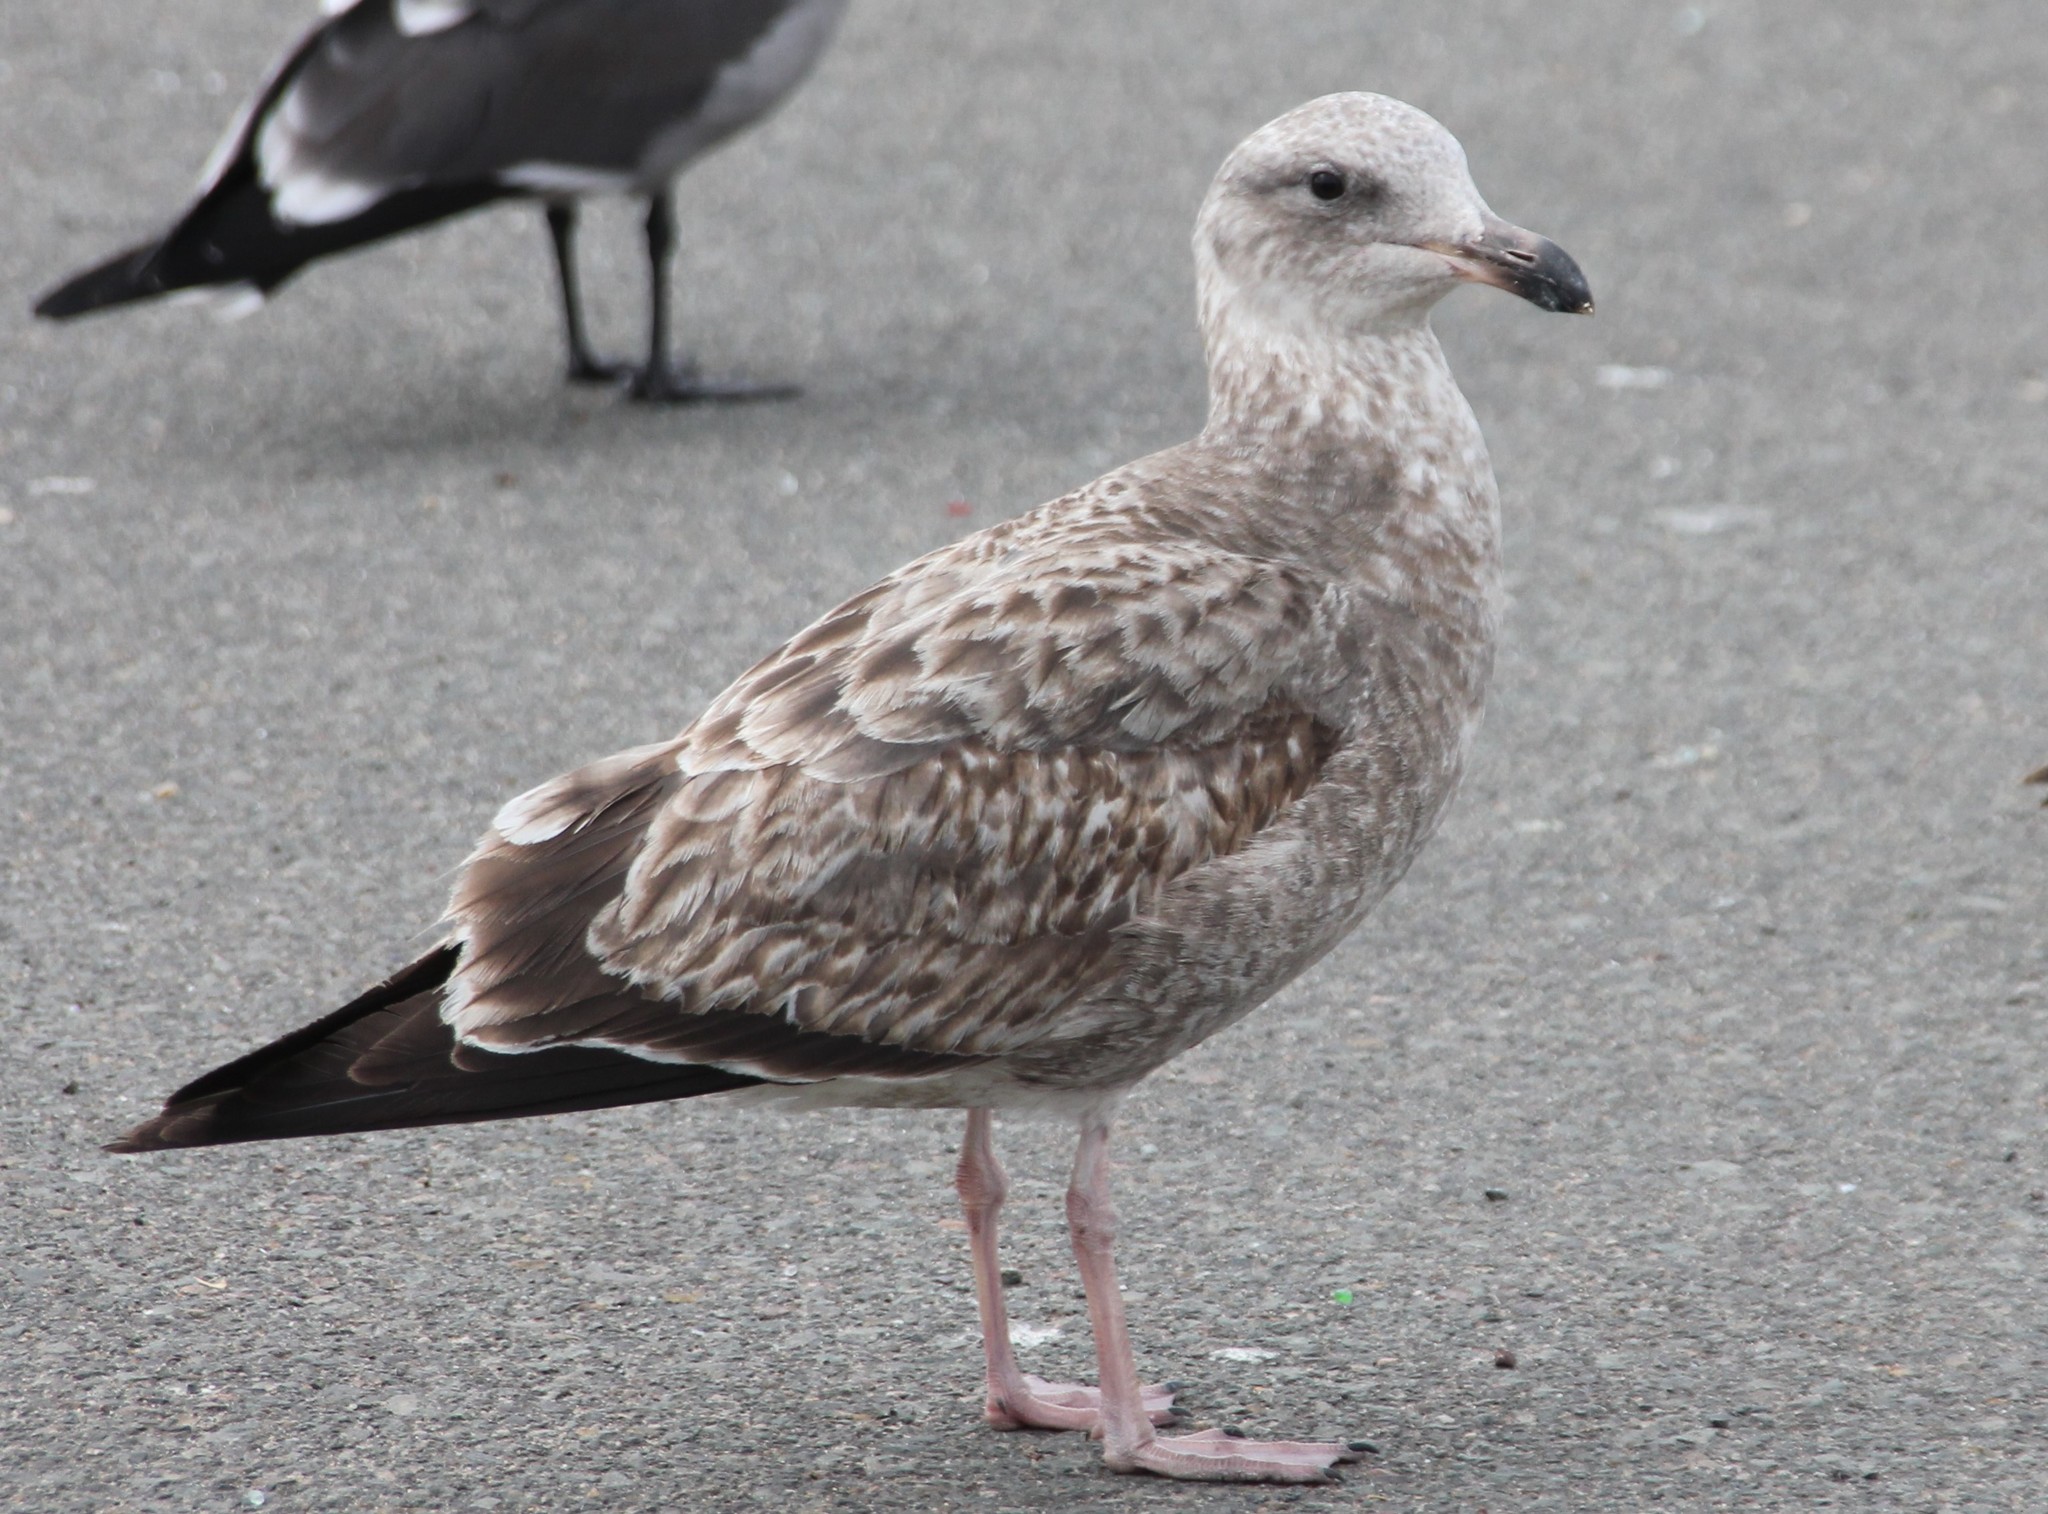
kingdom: Animalia
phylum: Chordata
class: Aves
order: Charadriiformes
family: Laridae
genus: Larus
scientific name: Larus occidentalis
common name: Western gull
